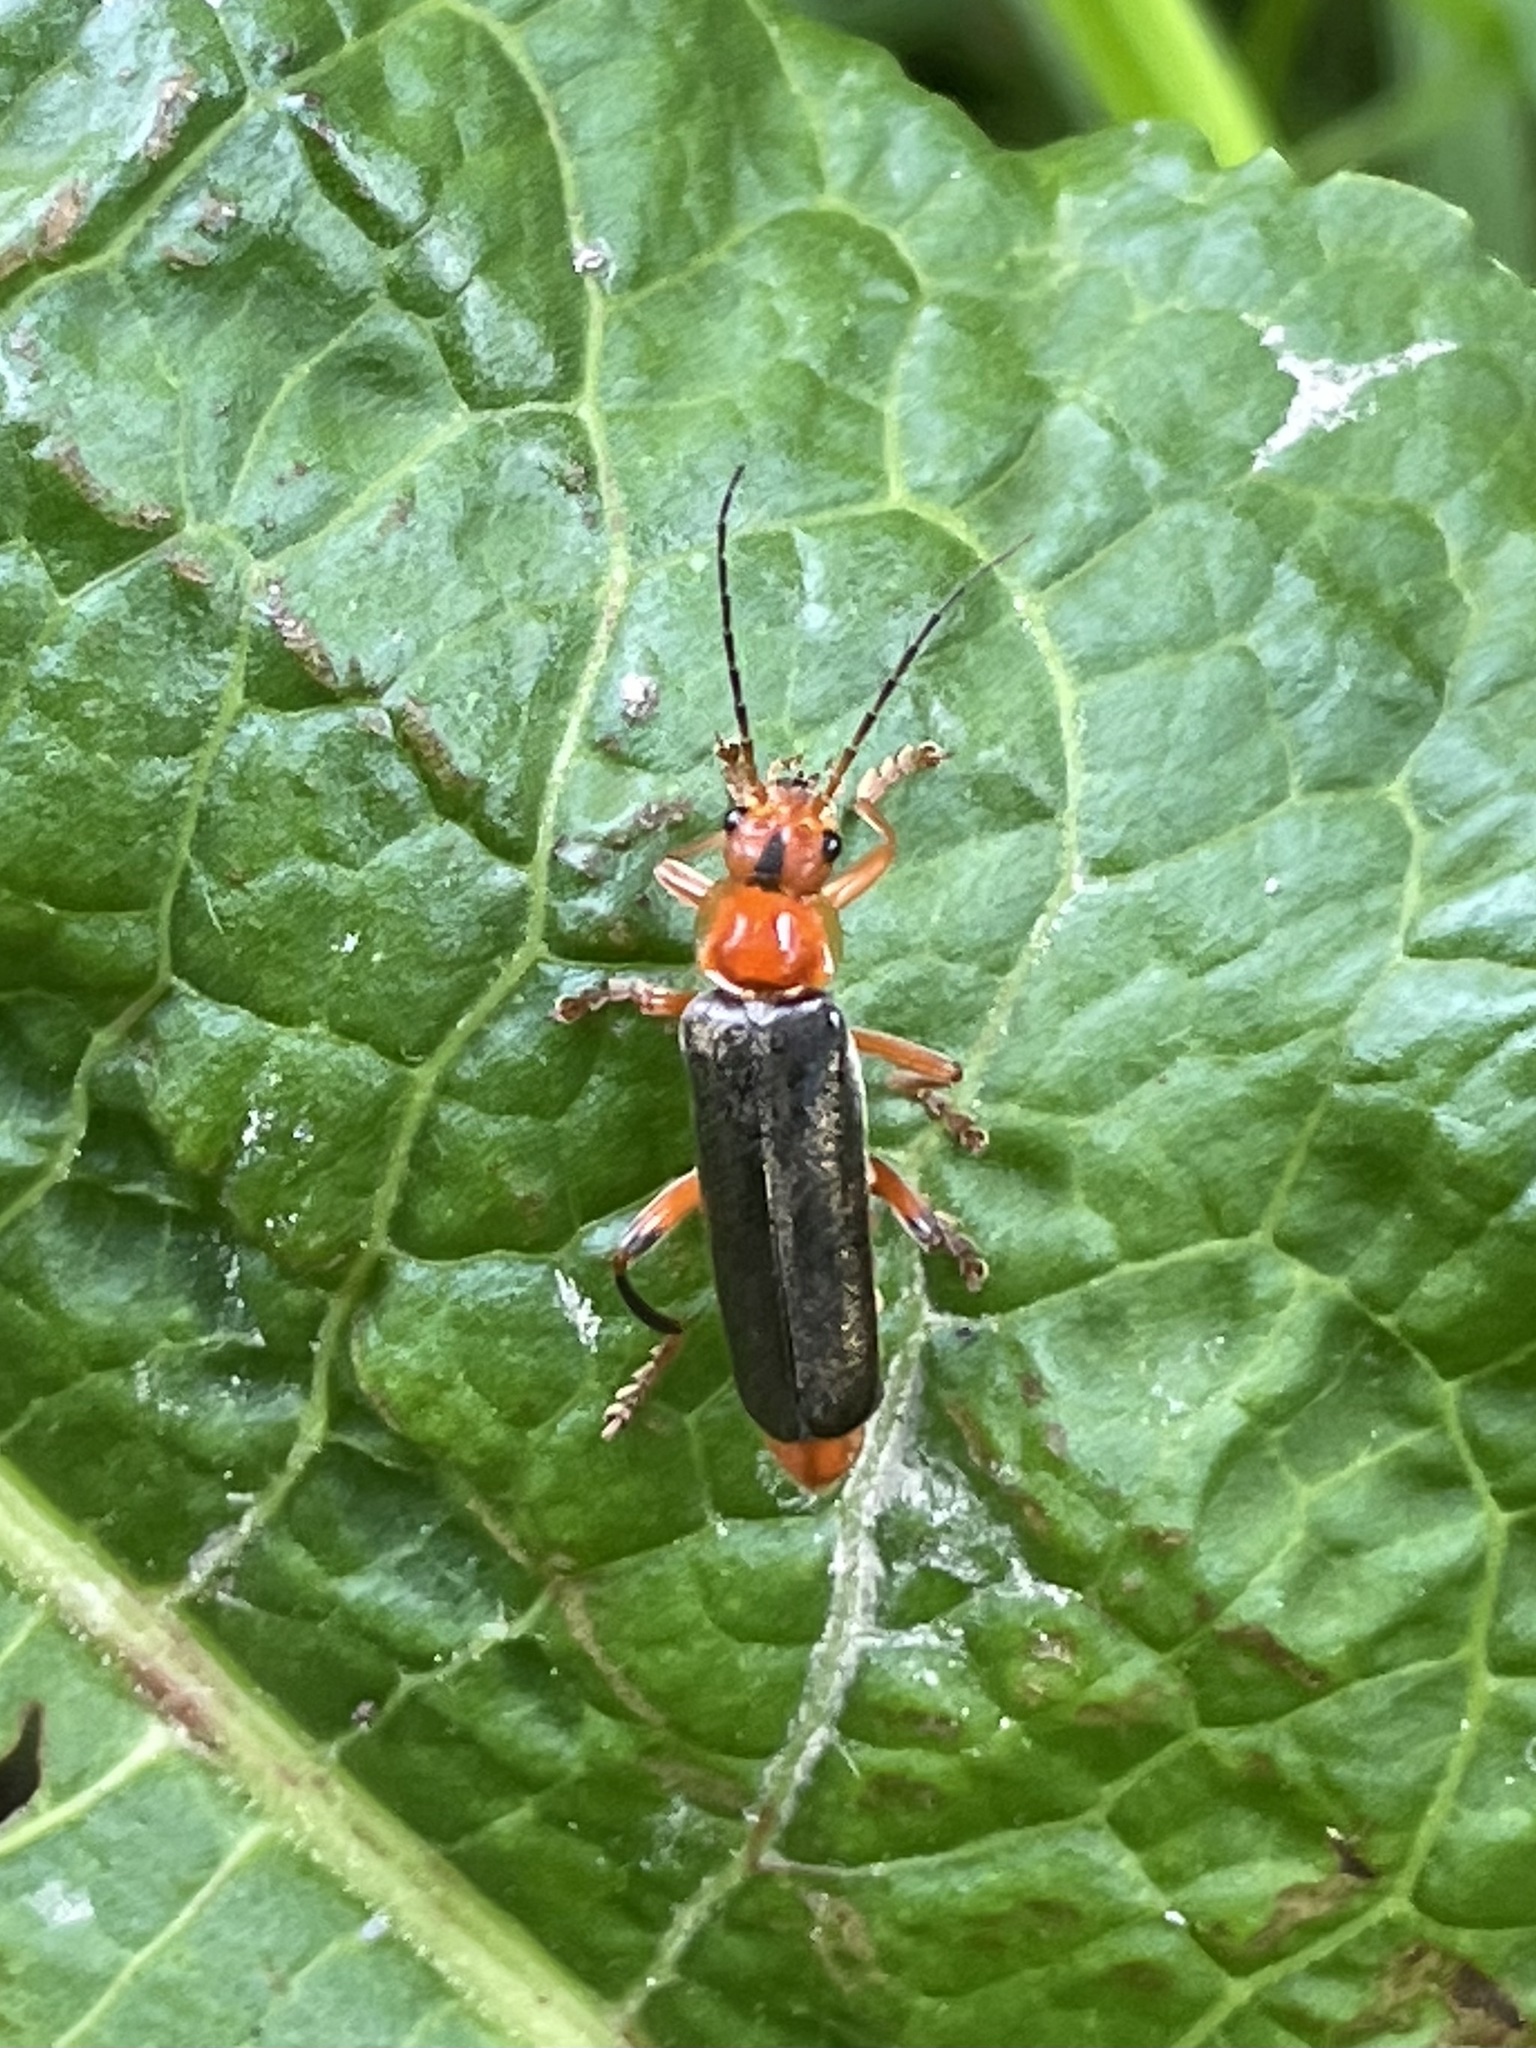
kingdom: Animalia
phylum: Arthropoda
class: Insecta
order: Coleoptera
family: Cantharidae
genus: Cantharis
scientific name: Cantharis livida
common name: Livid soldier beetle
